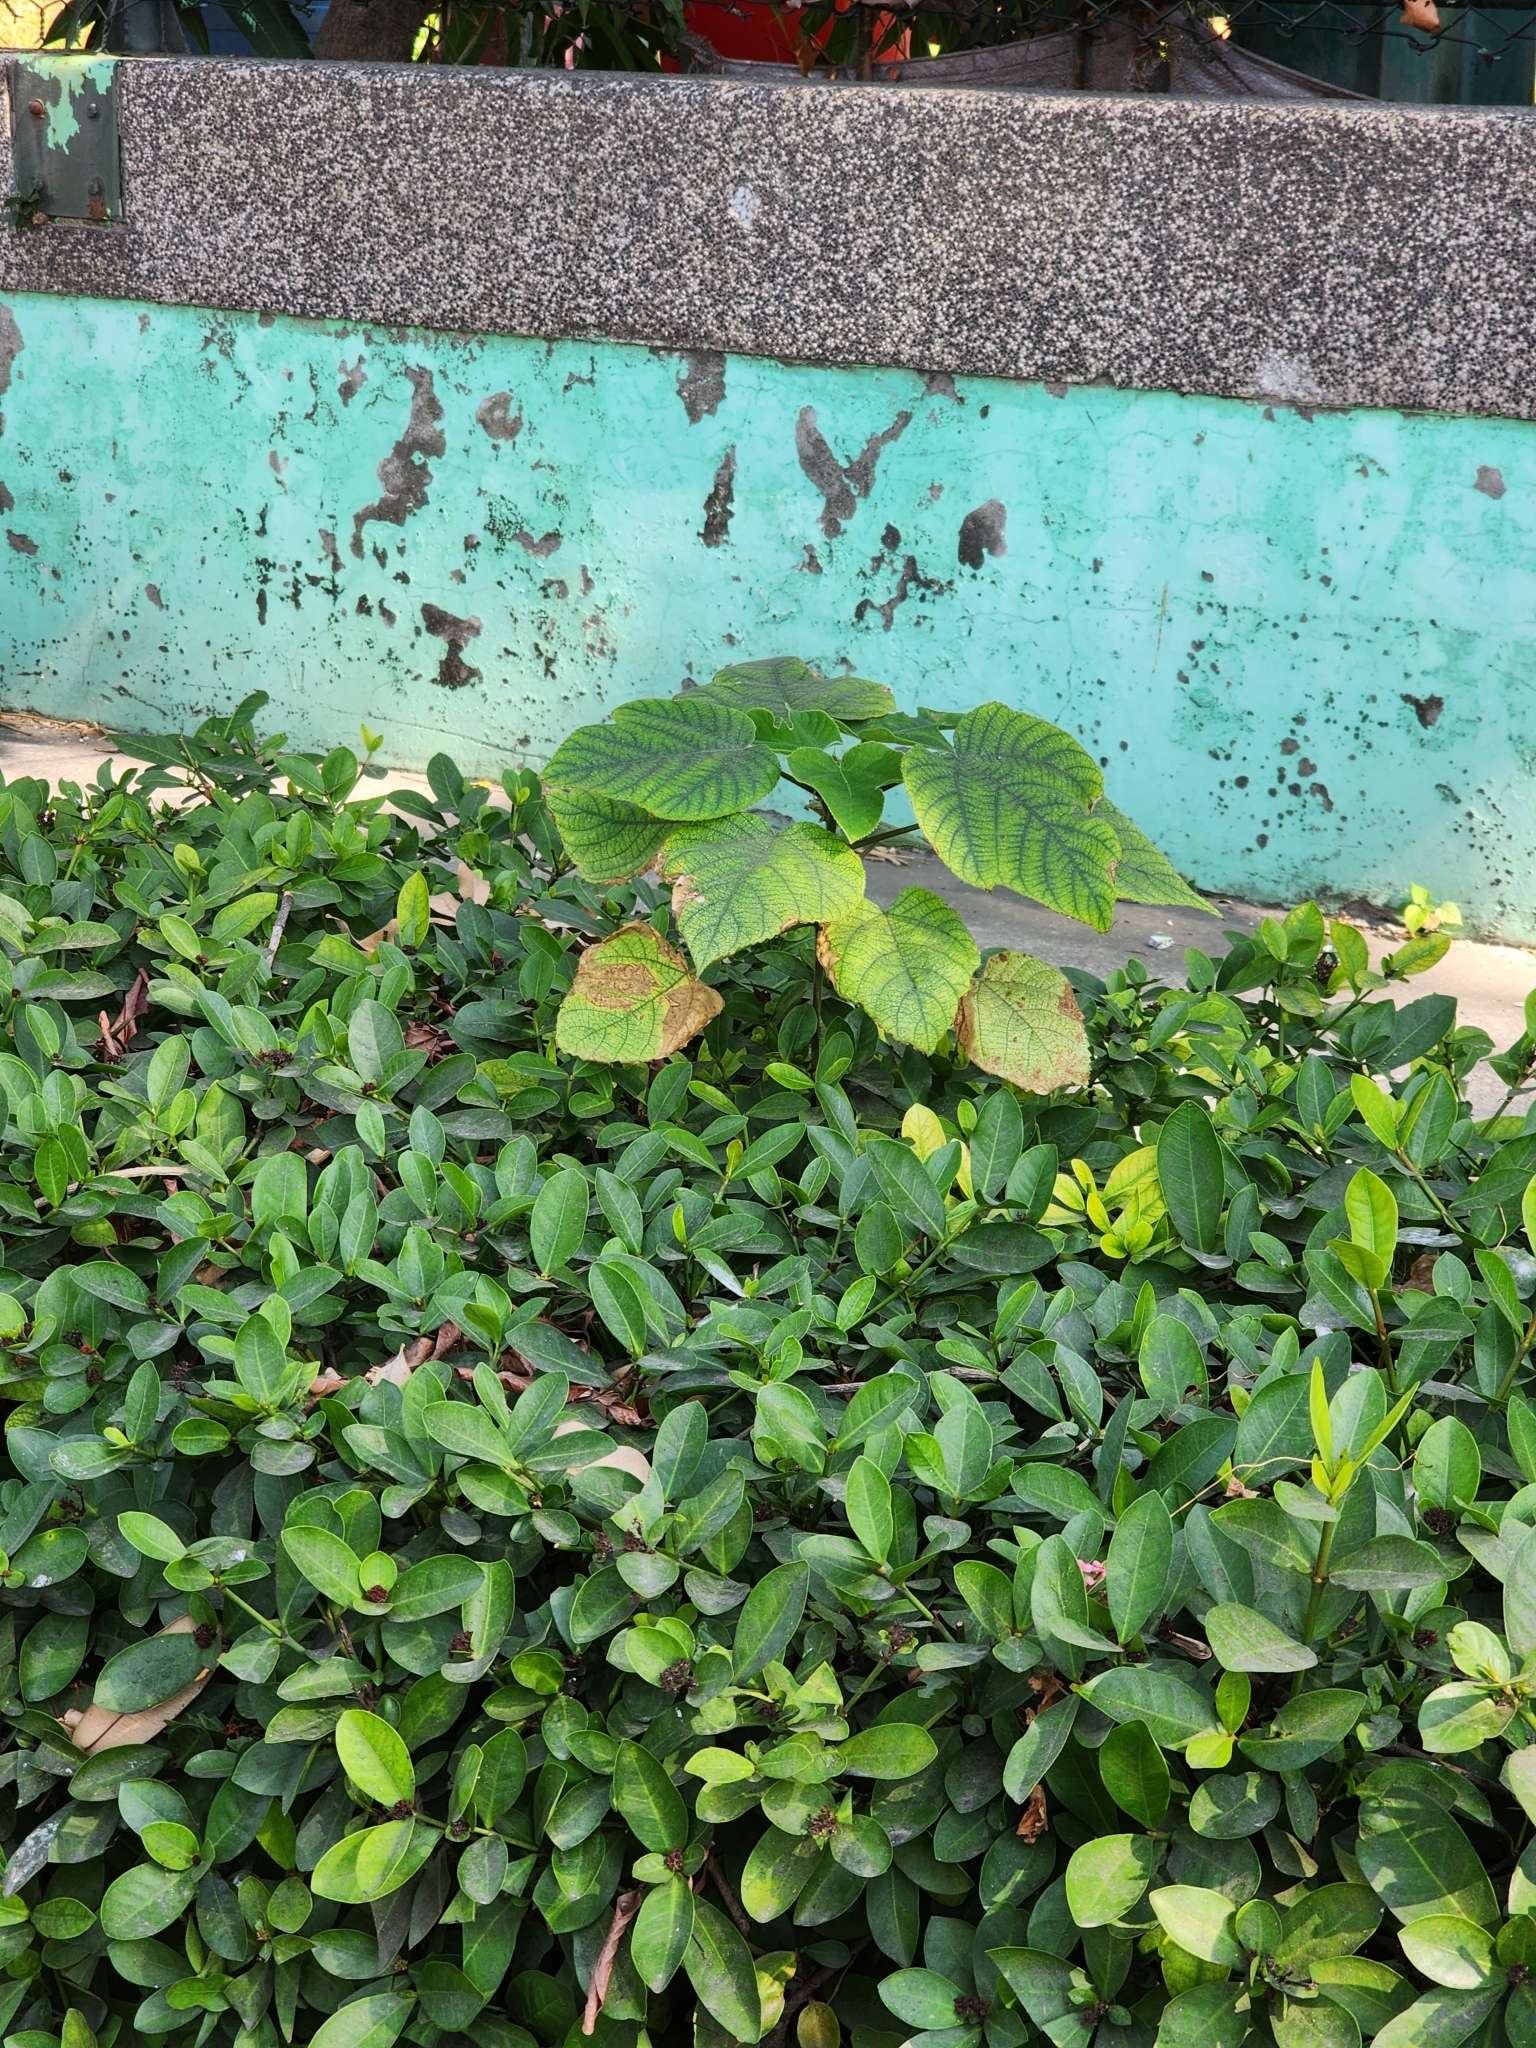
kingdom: Plantae
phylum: Tracheophyta
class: Magnoliopsida
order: Rosales
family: Moraceae
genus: Broussonetia
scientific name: Broussonetia papyrifera
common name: Paper mulberry
